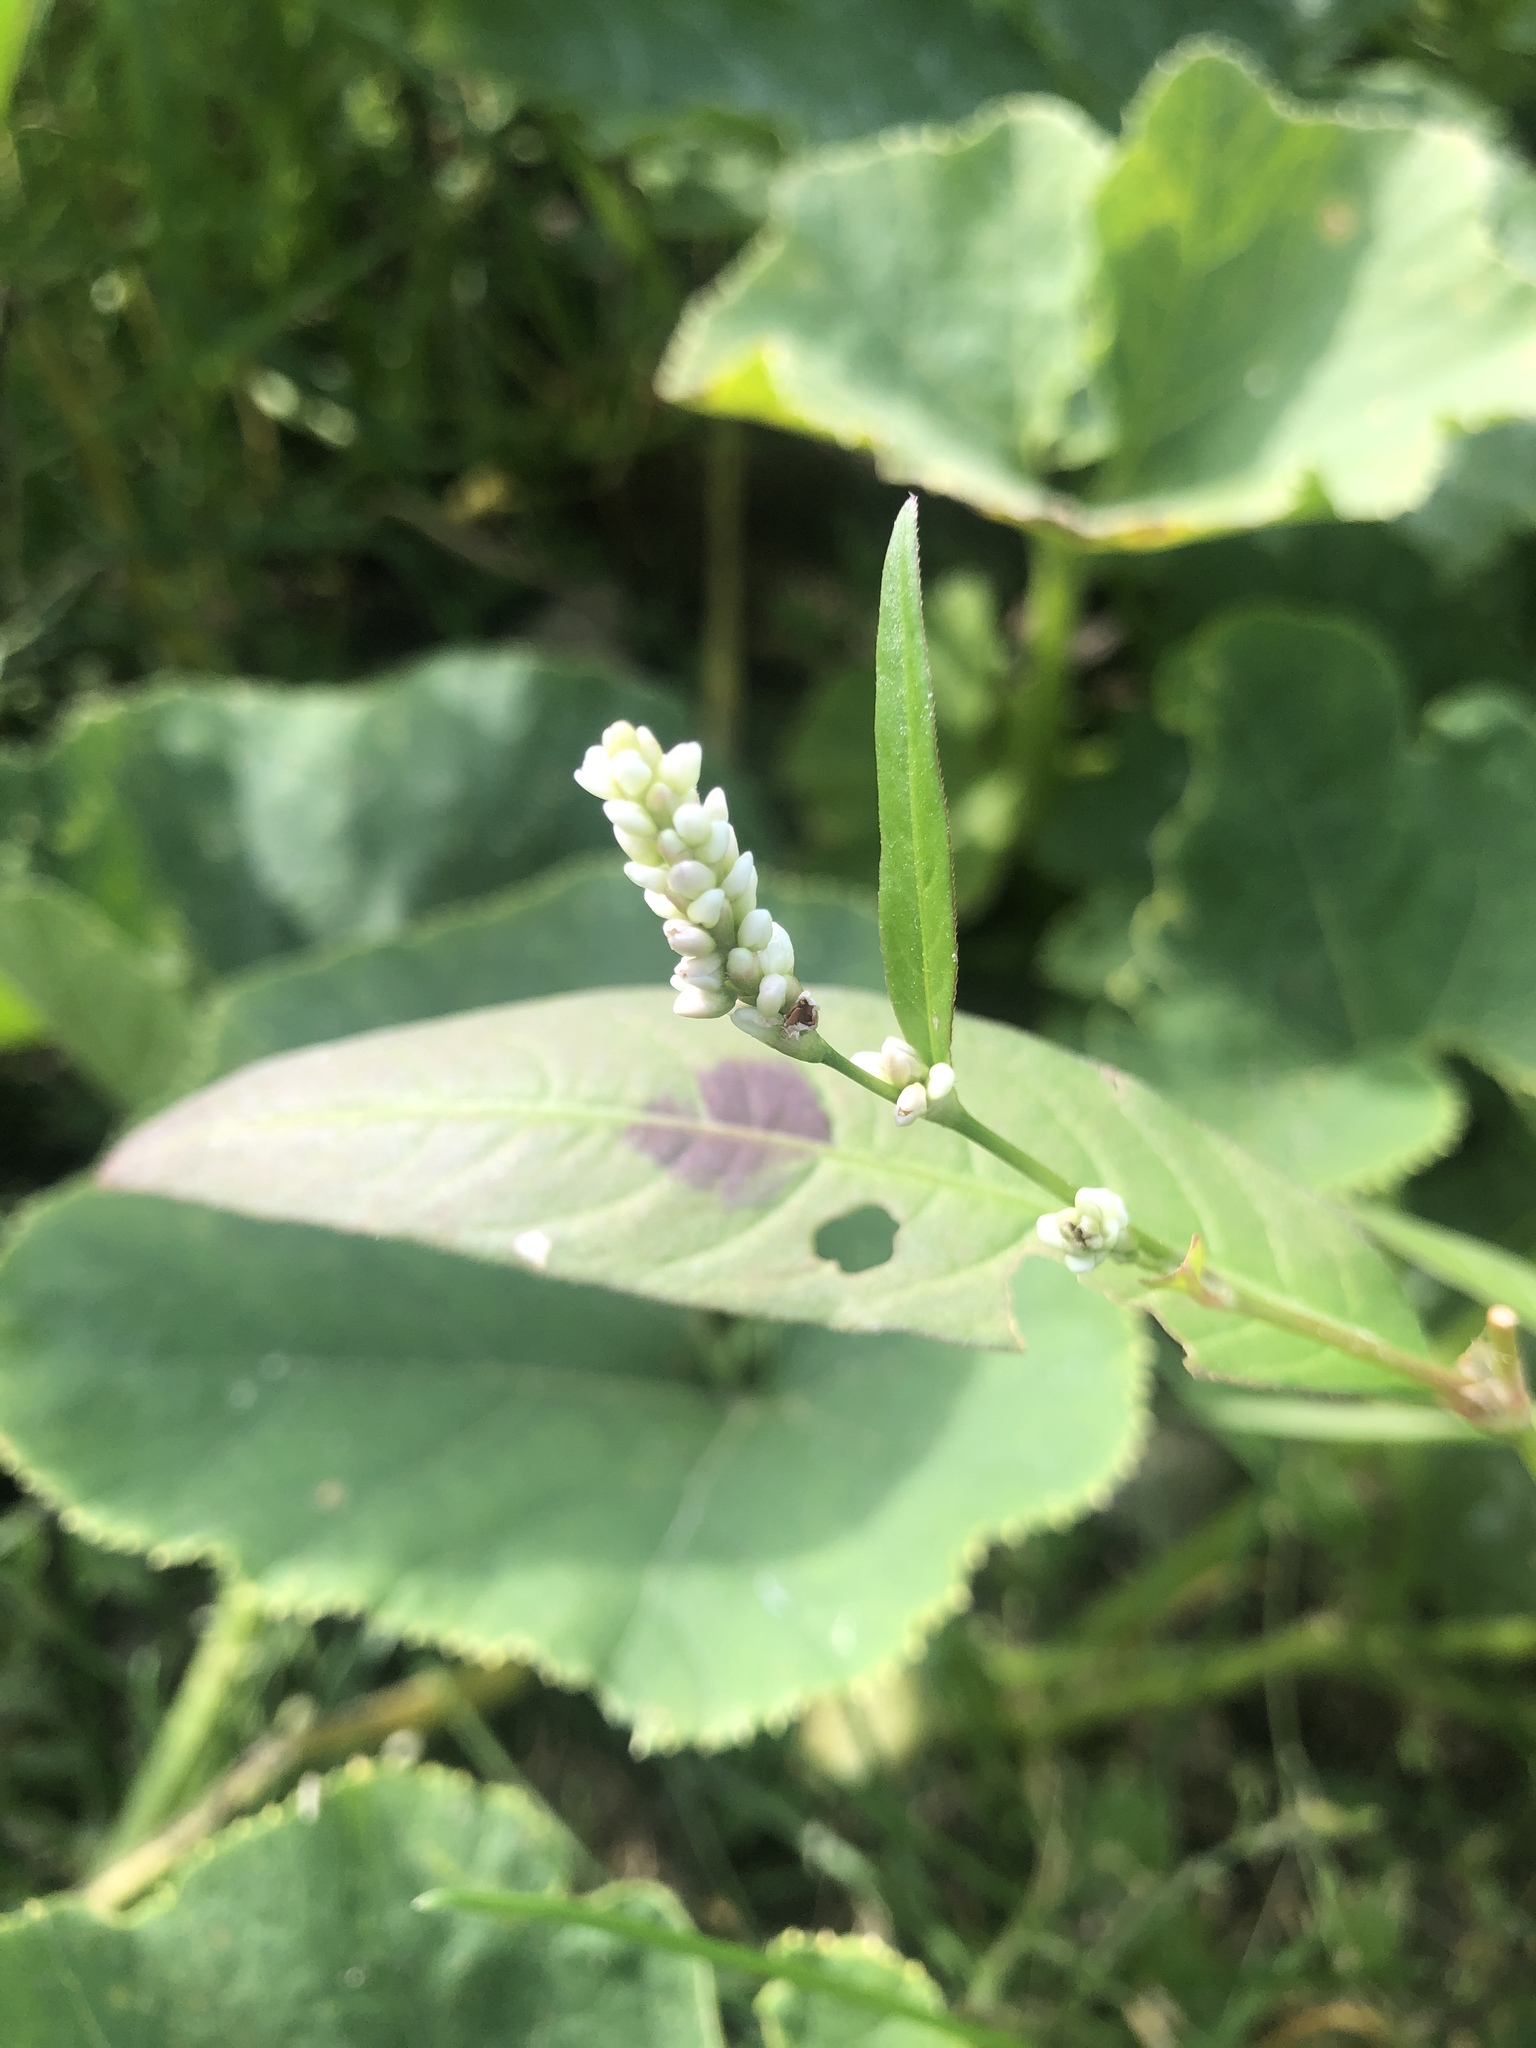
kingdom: Plantae
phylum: Tracheophyta
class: Magnoliopsida
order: Caryophyllales
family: Polygonaceae
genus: Persicaria
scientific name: Persicaria maculosa
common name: Redshank
